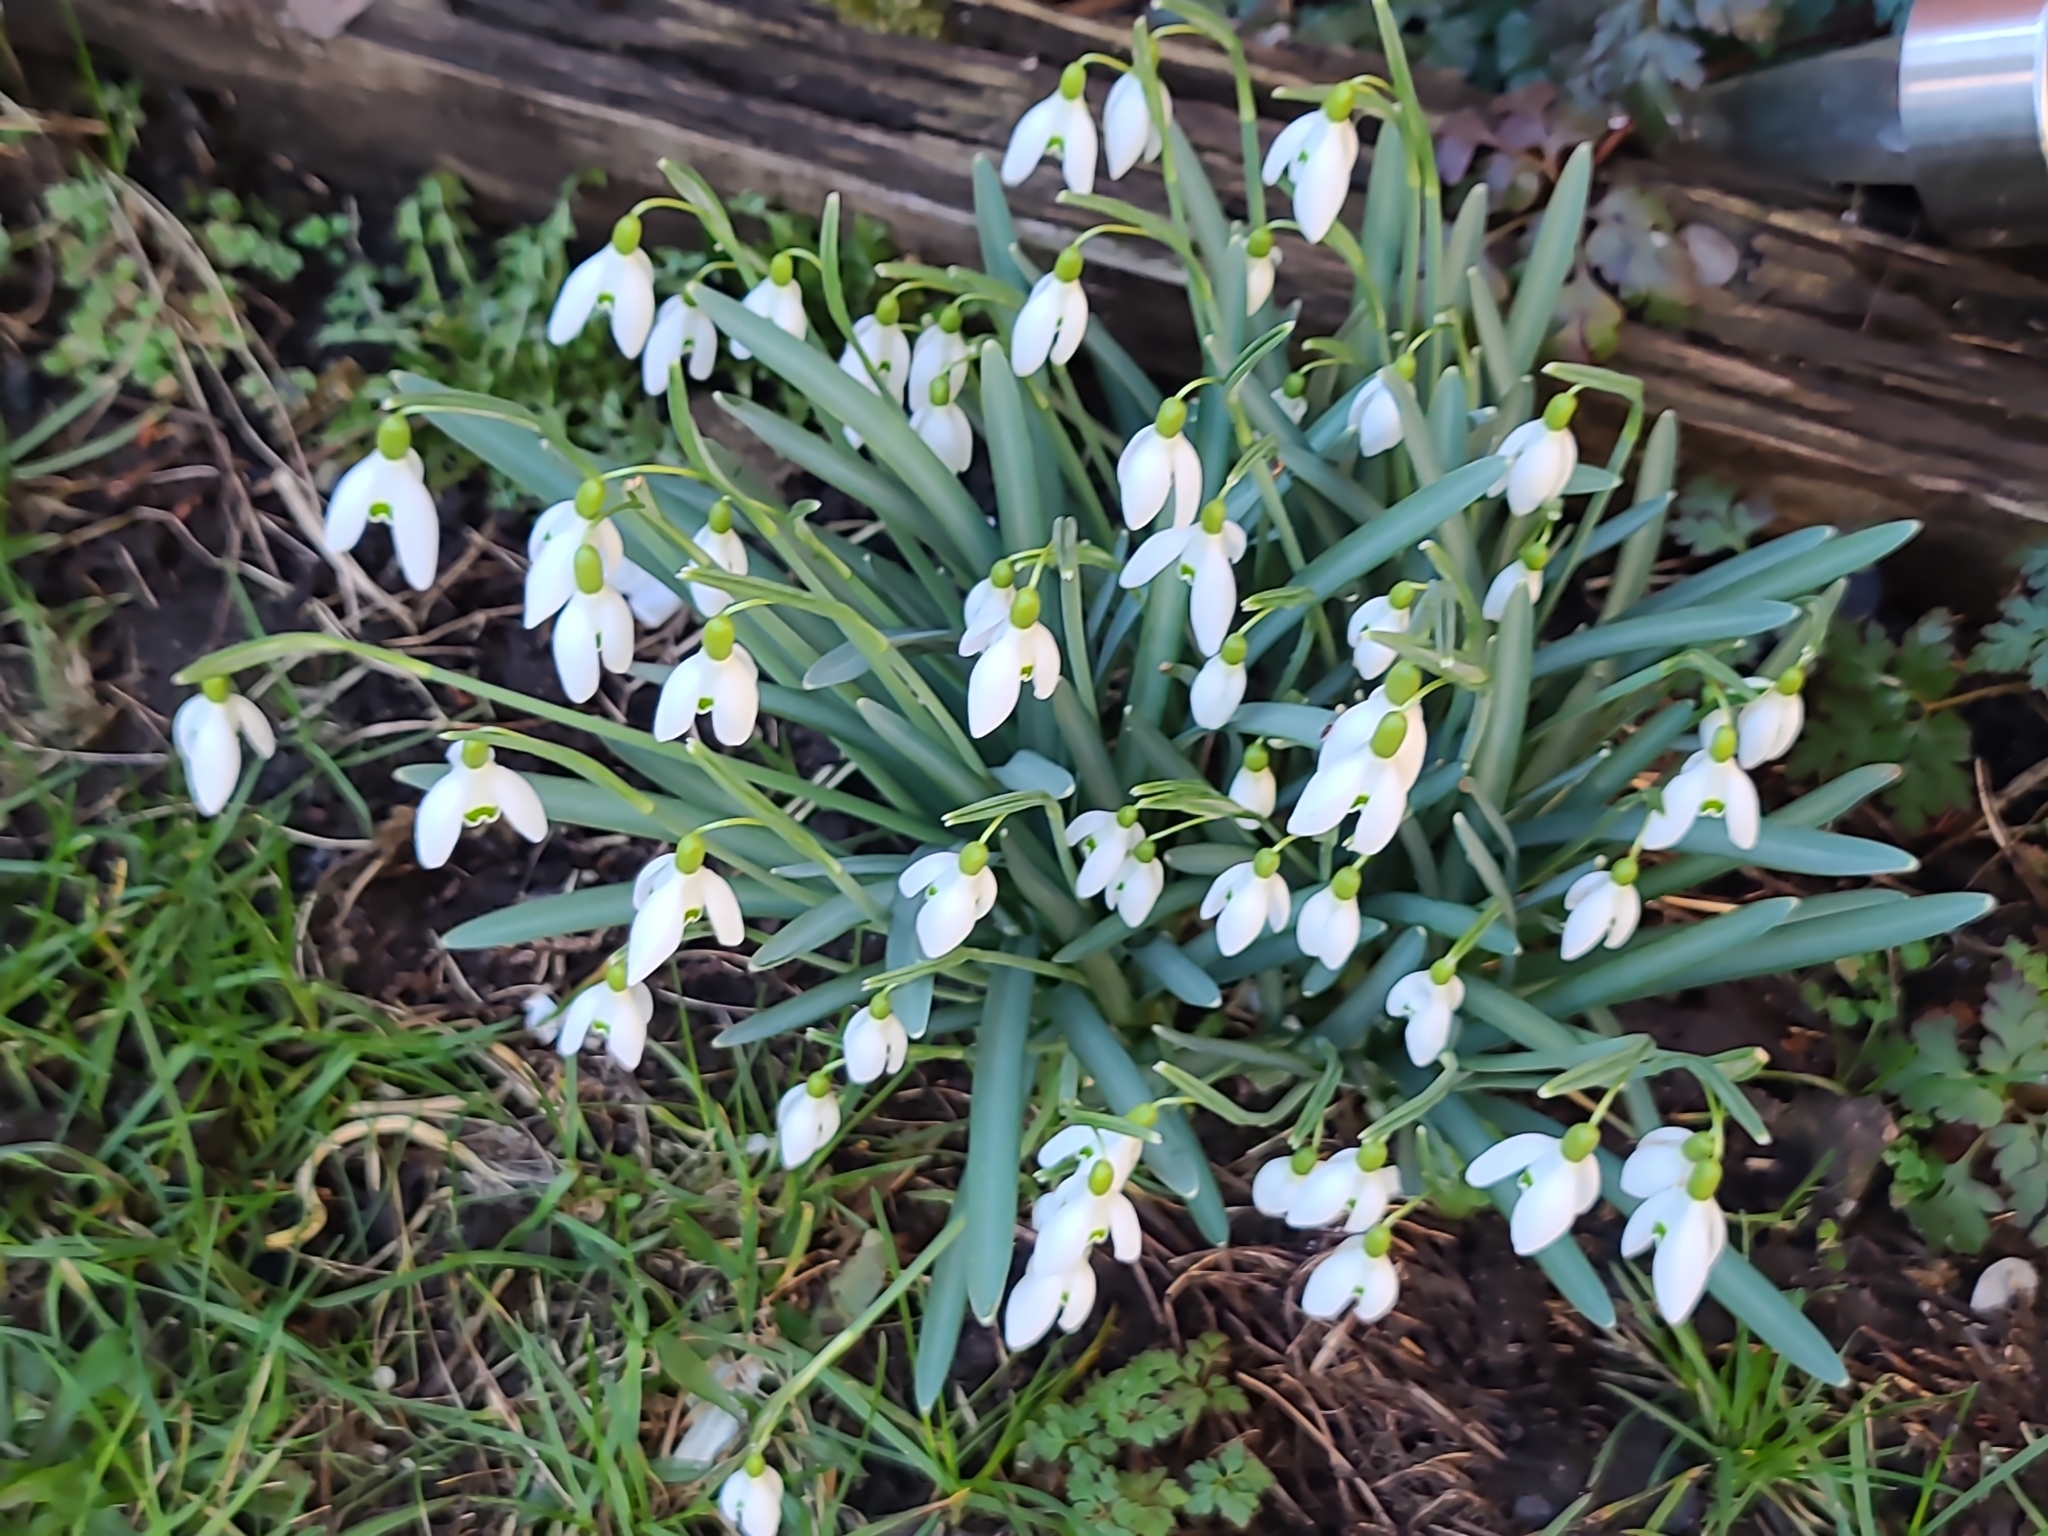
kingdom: Plantae
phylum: Tracheophyta
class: Liliopsida
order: Asparagales
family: Amaryllidaceae
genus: Galanthus
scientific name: Galanthus nivalis
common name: Snowdrop
